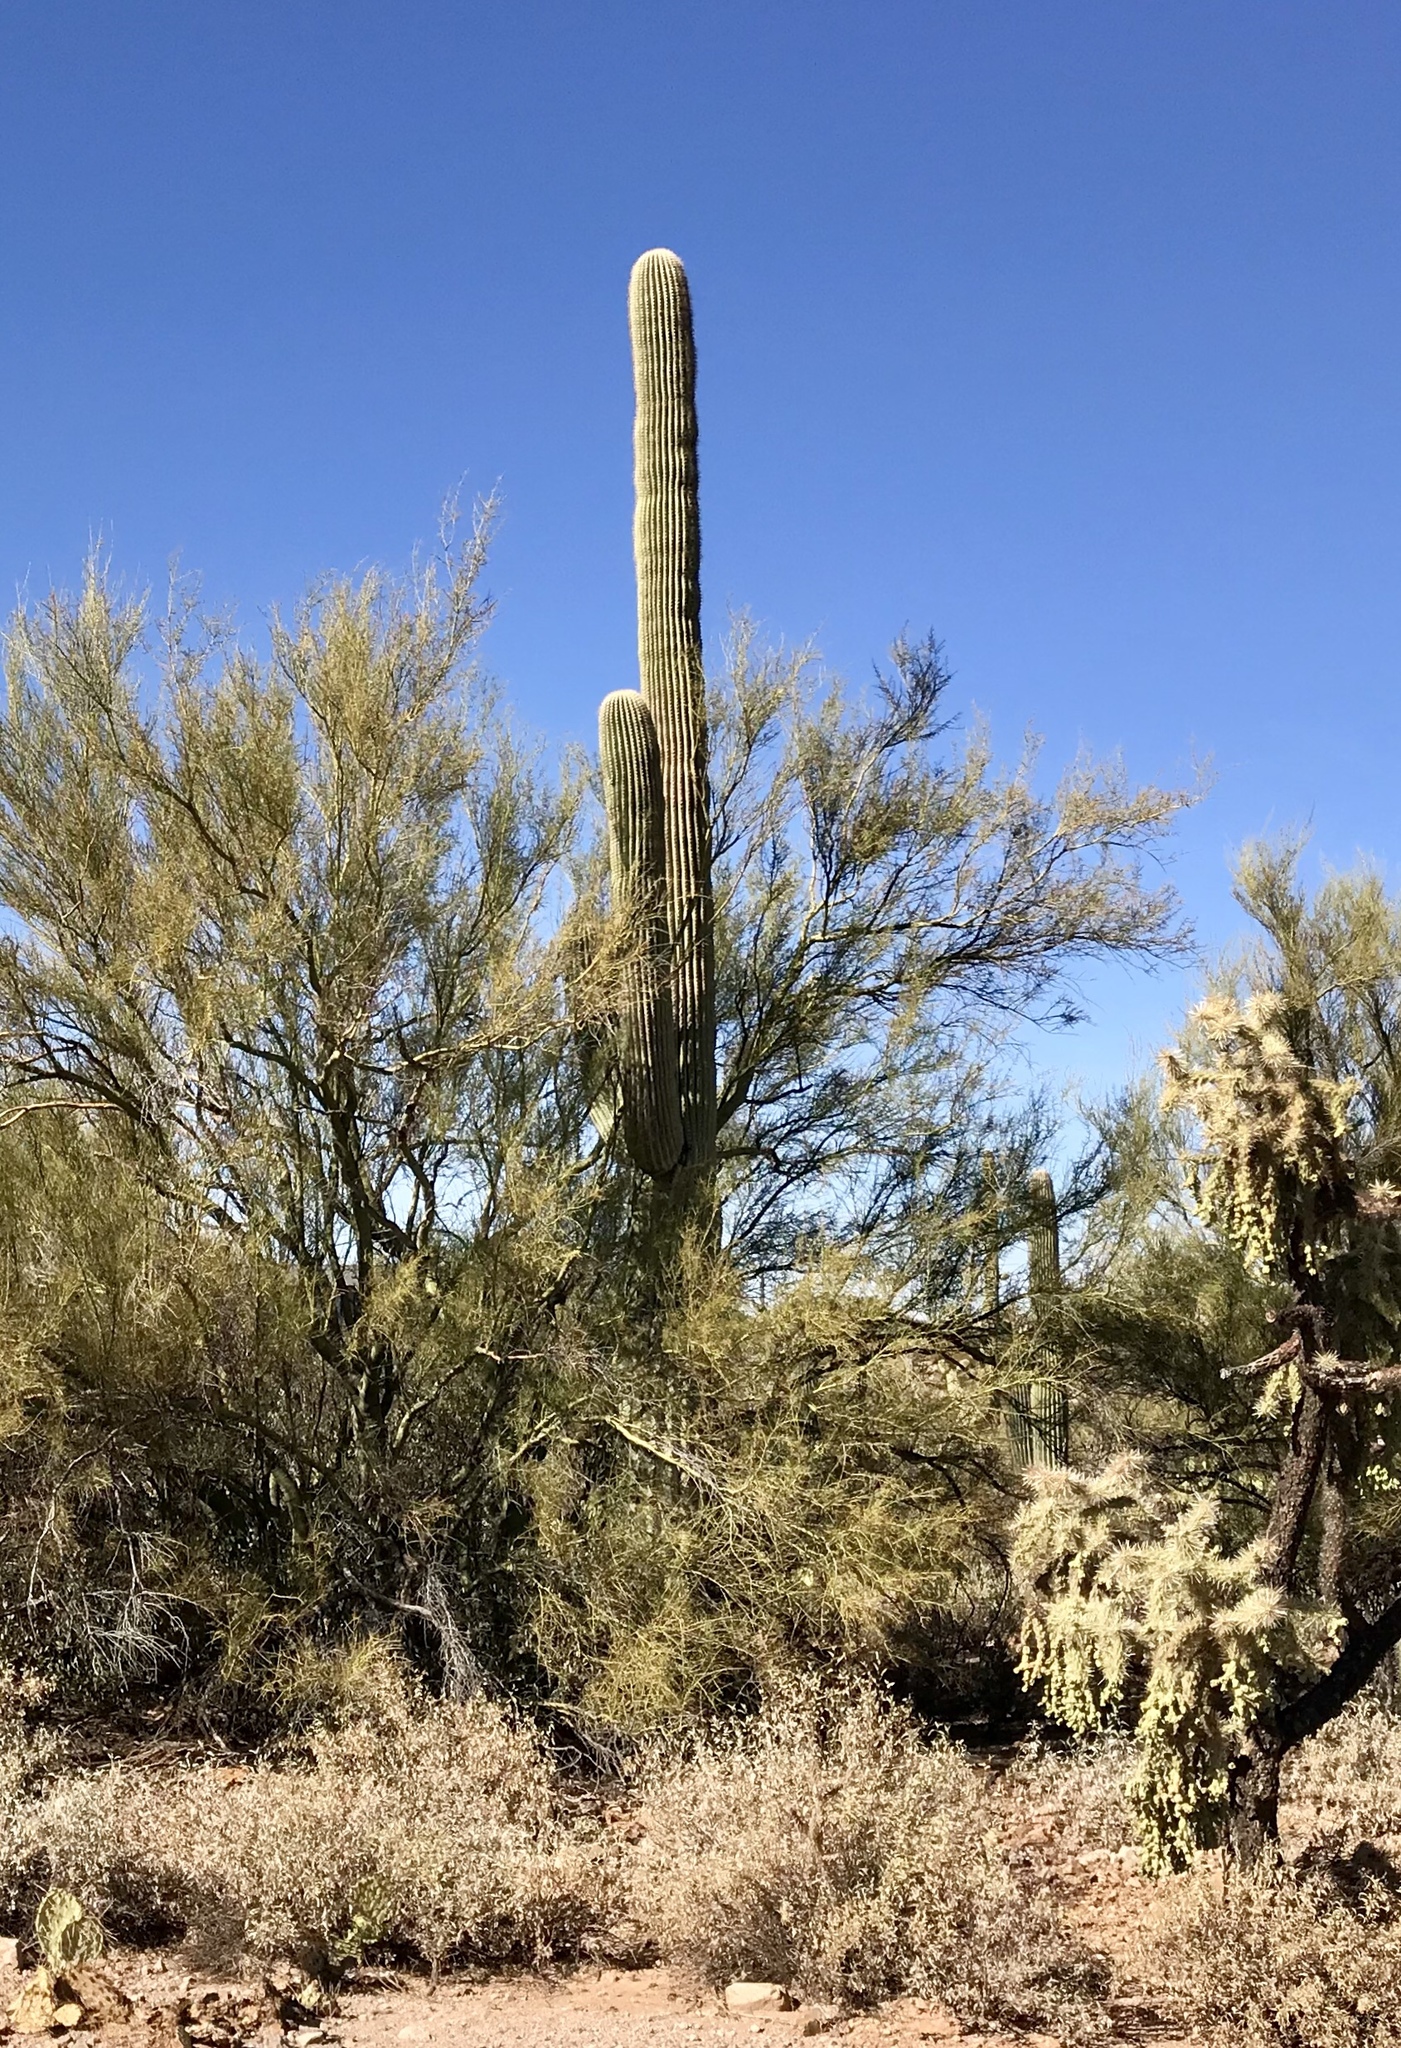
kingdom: Plantae
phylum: Tracheophyta
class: Magnoliopsida
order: Caryophyllales
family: Cactaceae
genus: Carnegiea
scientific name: Carnegiea gigantea
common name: Saguaro
